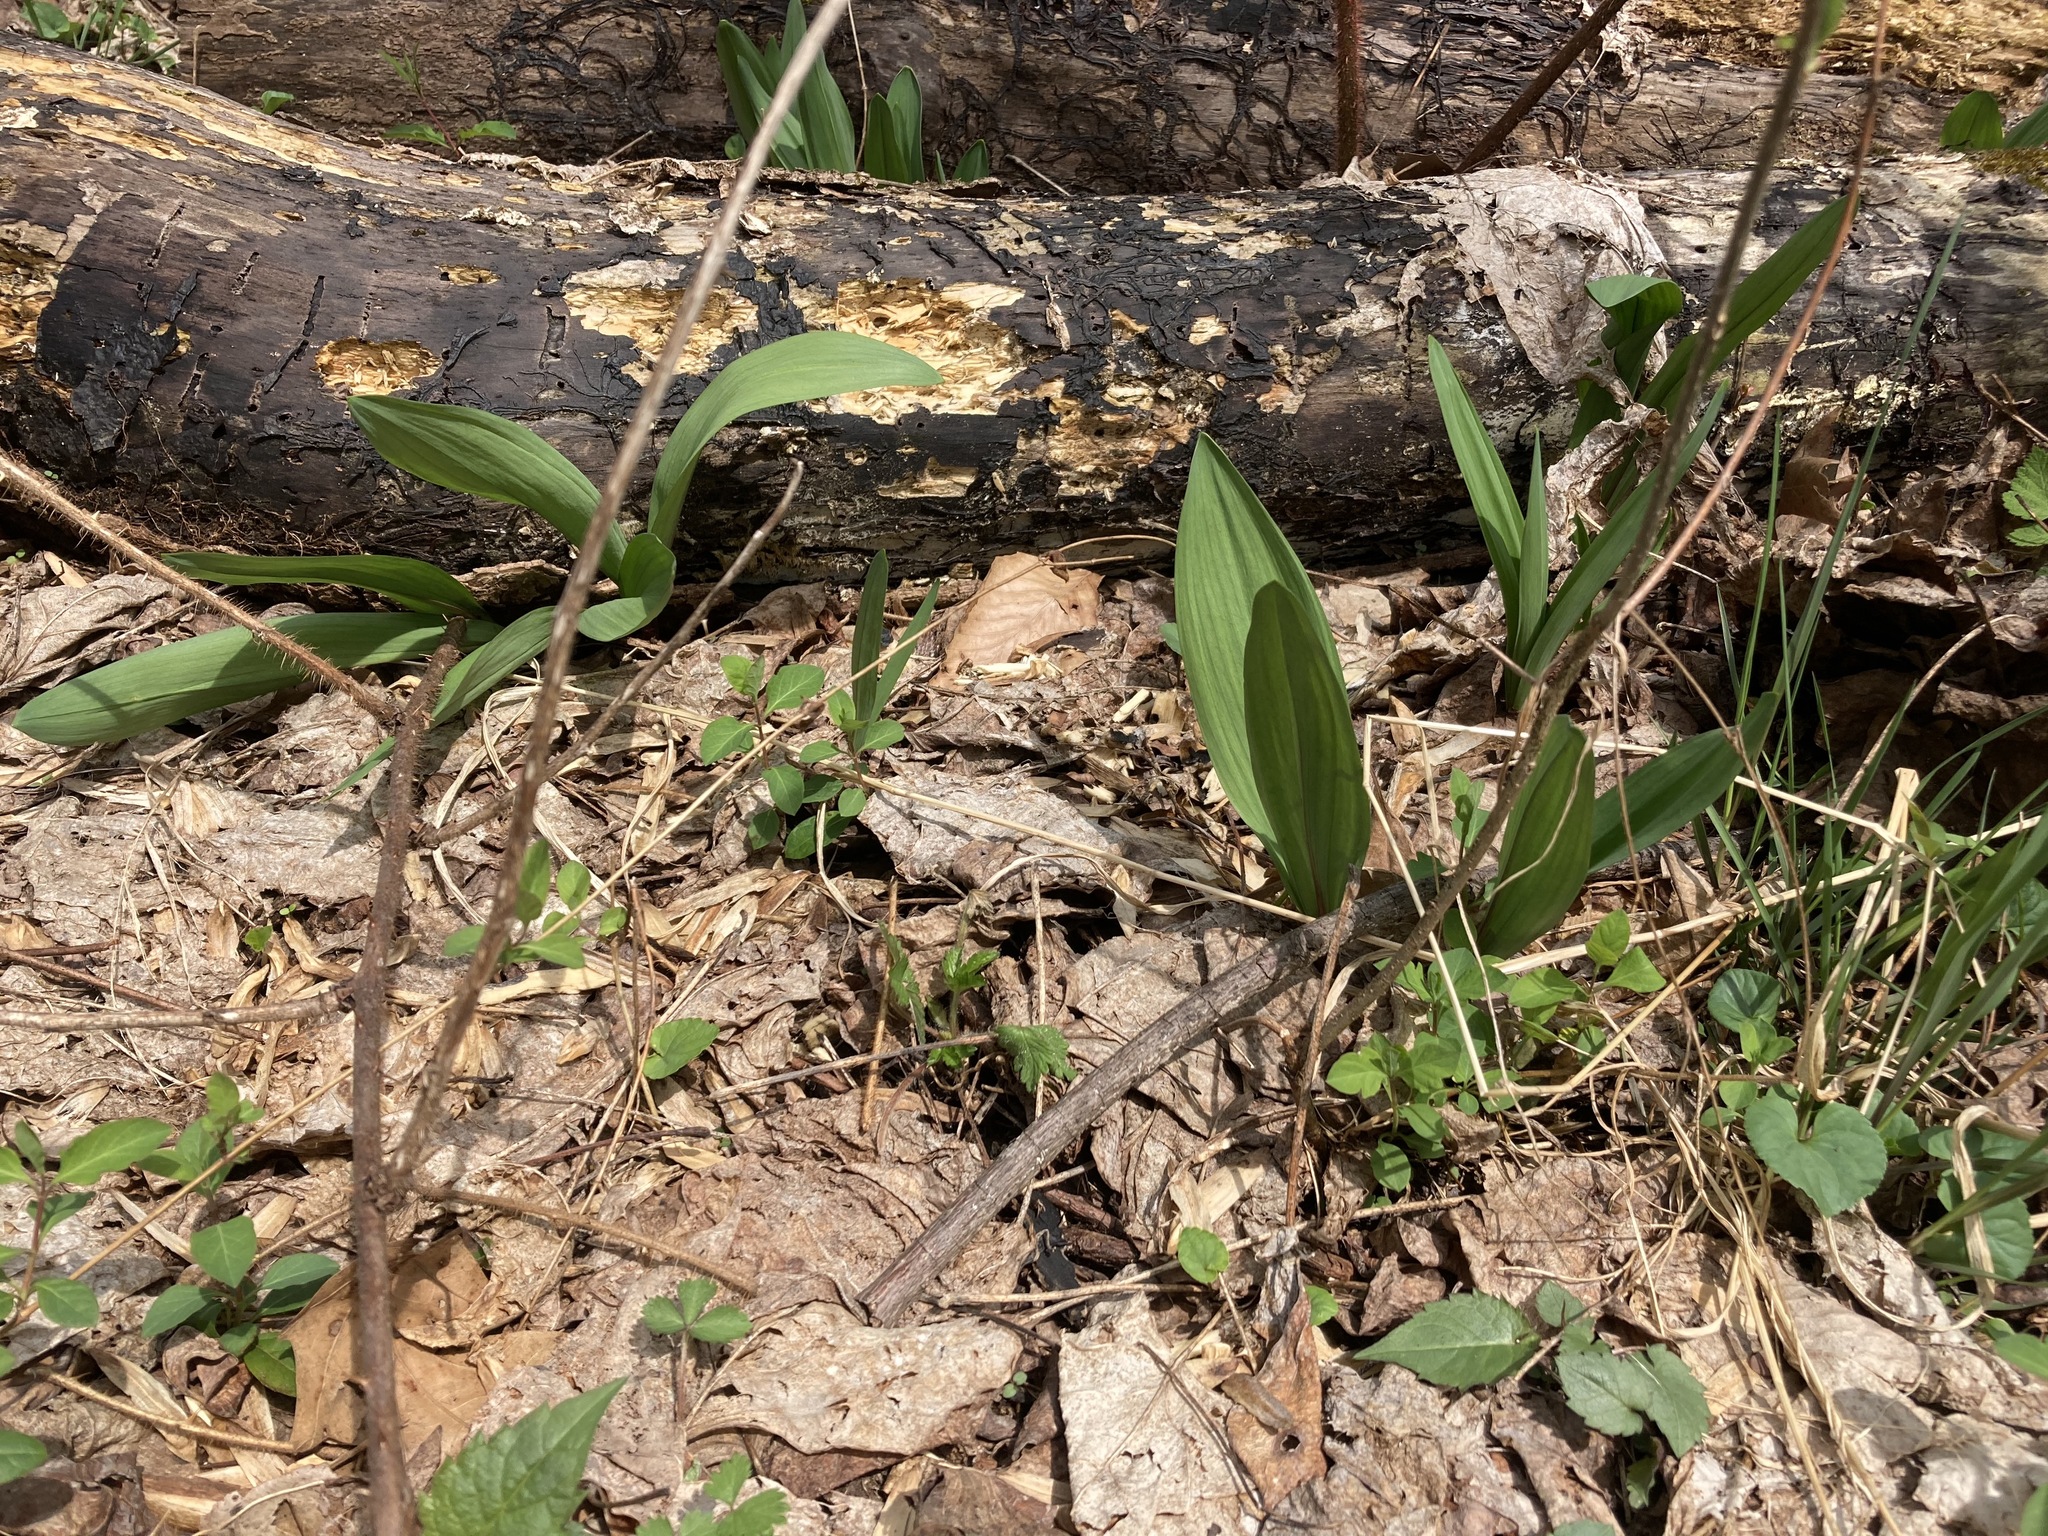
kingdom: Plantae
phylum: Tracheophyta
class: Liliopsida
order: Asparagales
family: Amaryllidaceae
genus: Allium
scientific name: Allium tricoccum
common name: Ramp
